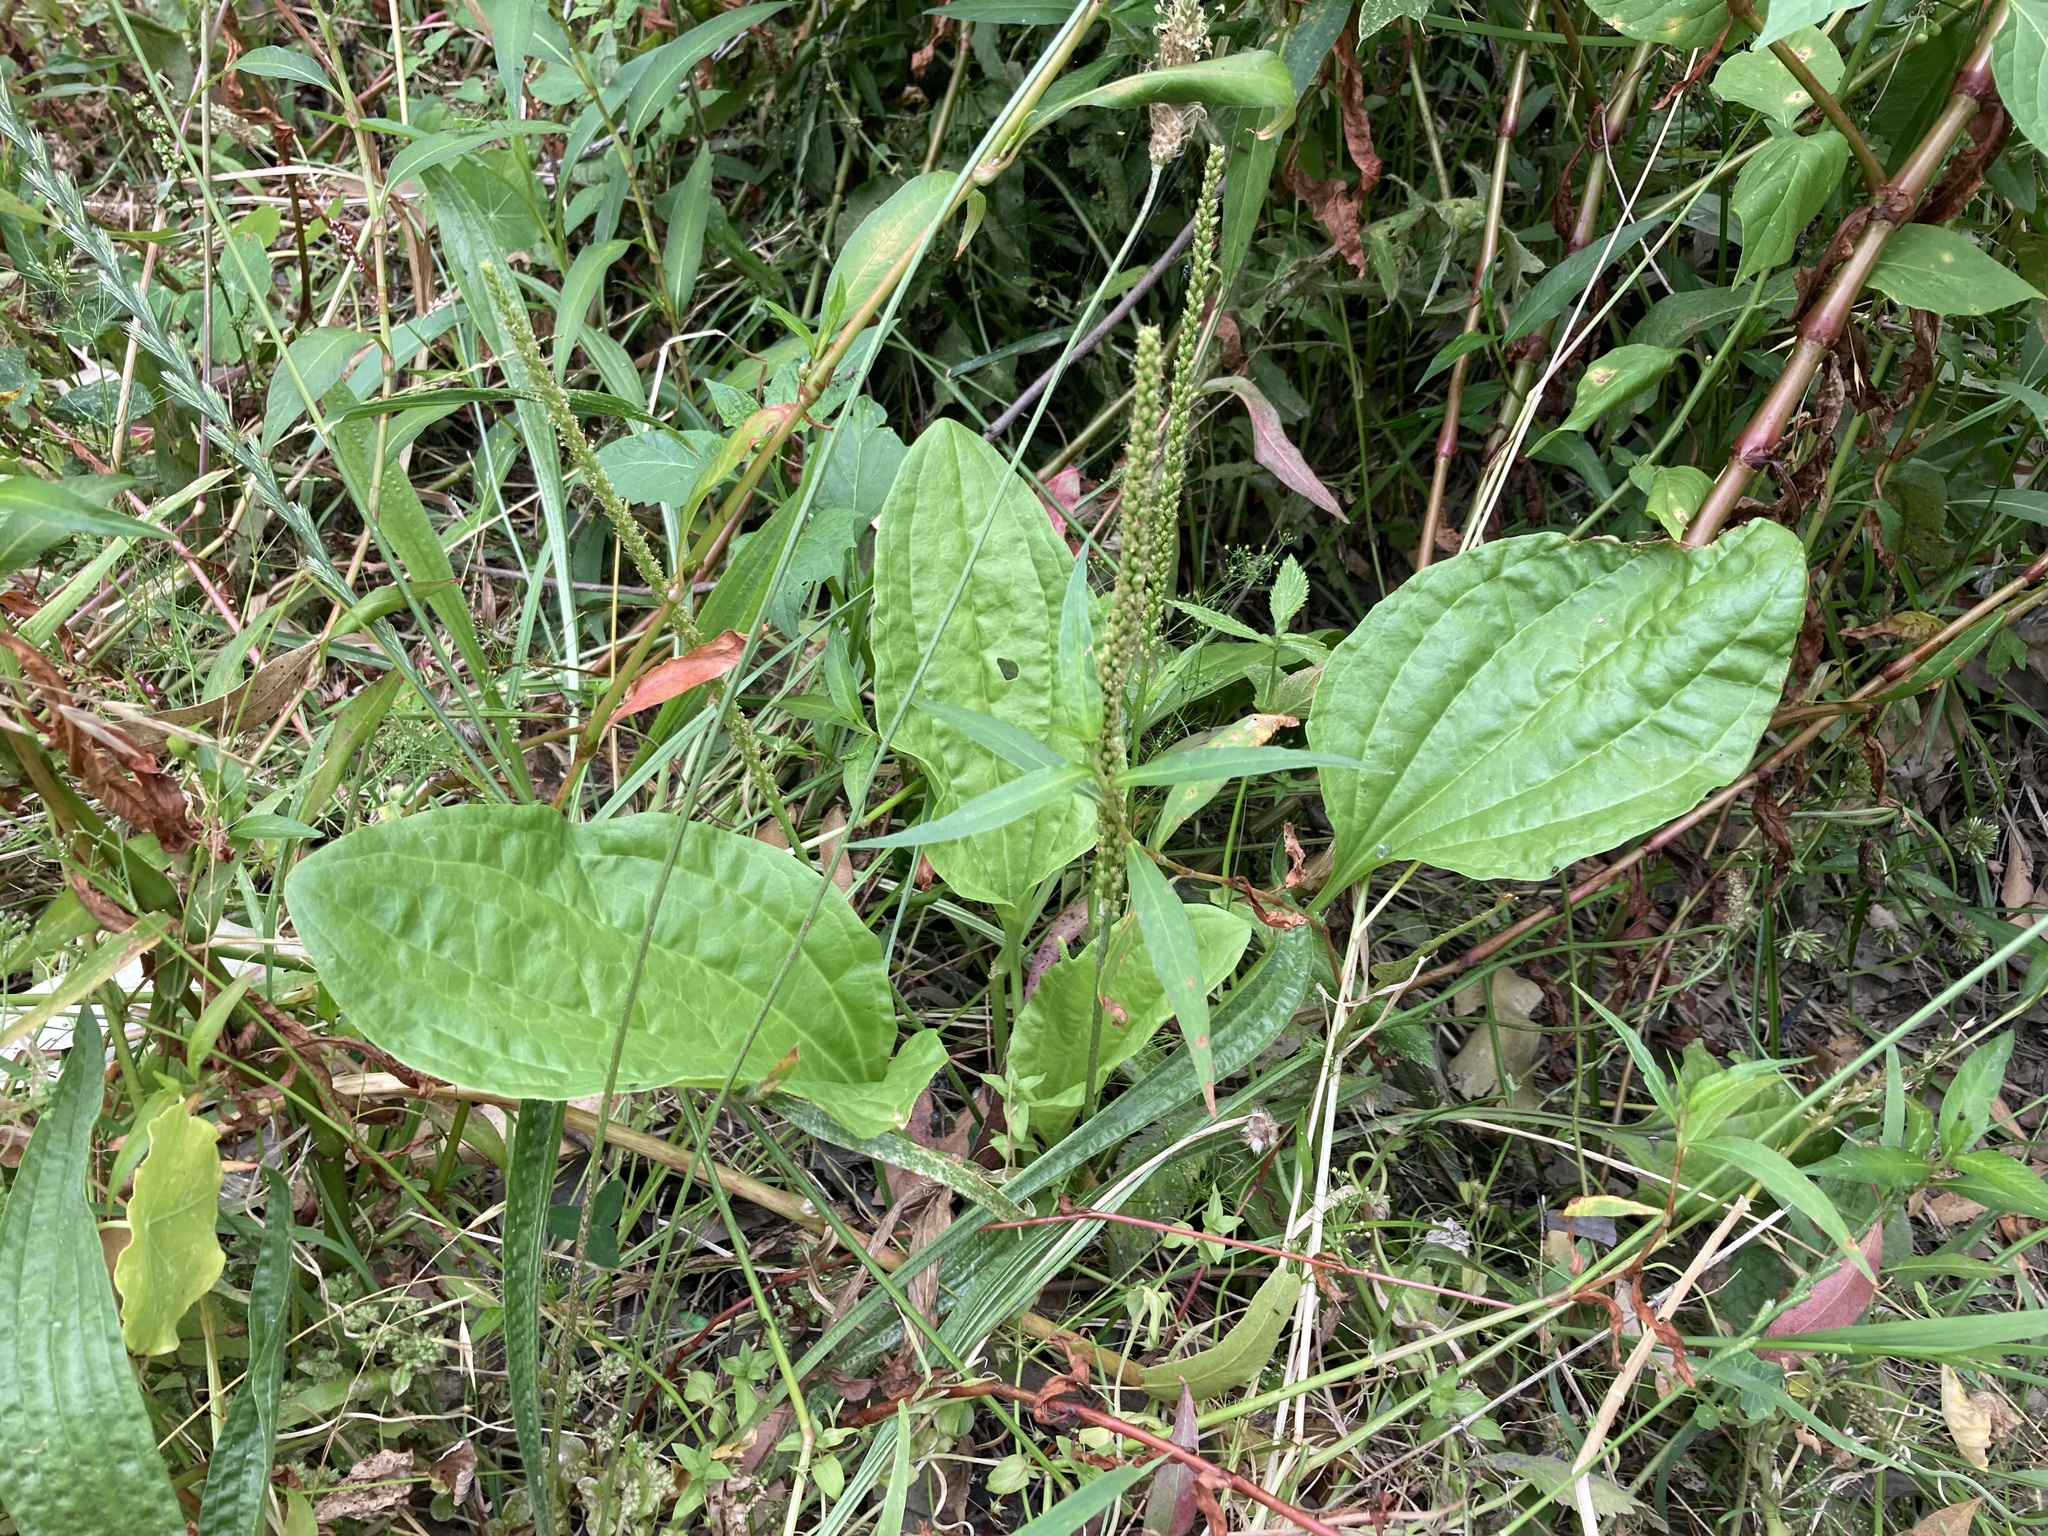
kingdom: Plantae
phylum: Tracheophyta
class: Magnoliopsida
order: Lamiales
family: Plantaginaceae
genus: Plantago
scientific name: Plantago major
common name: Common plantain
